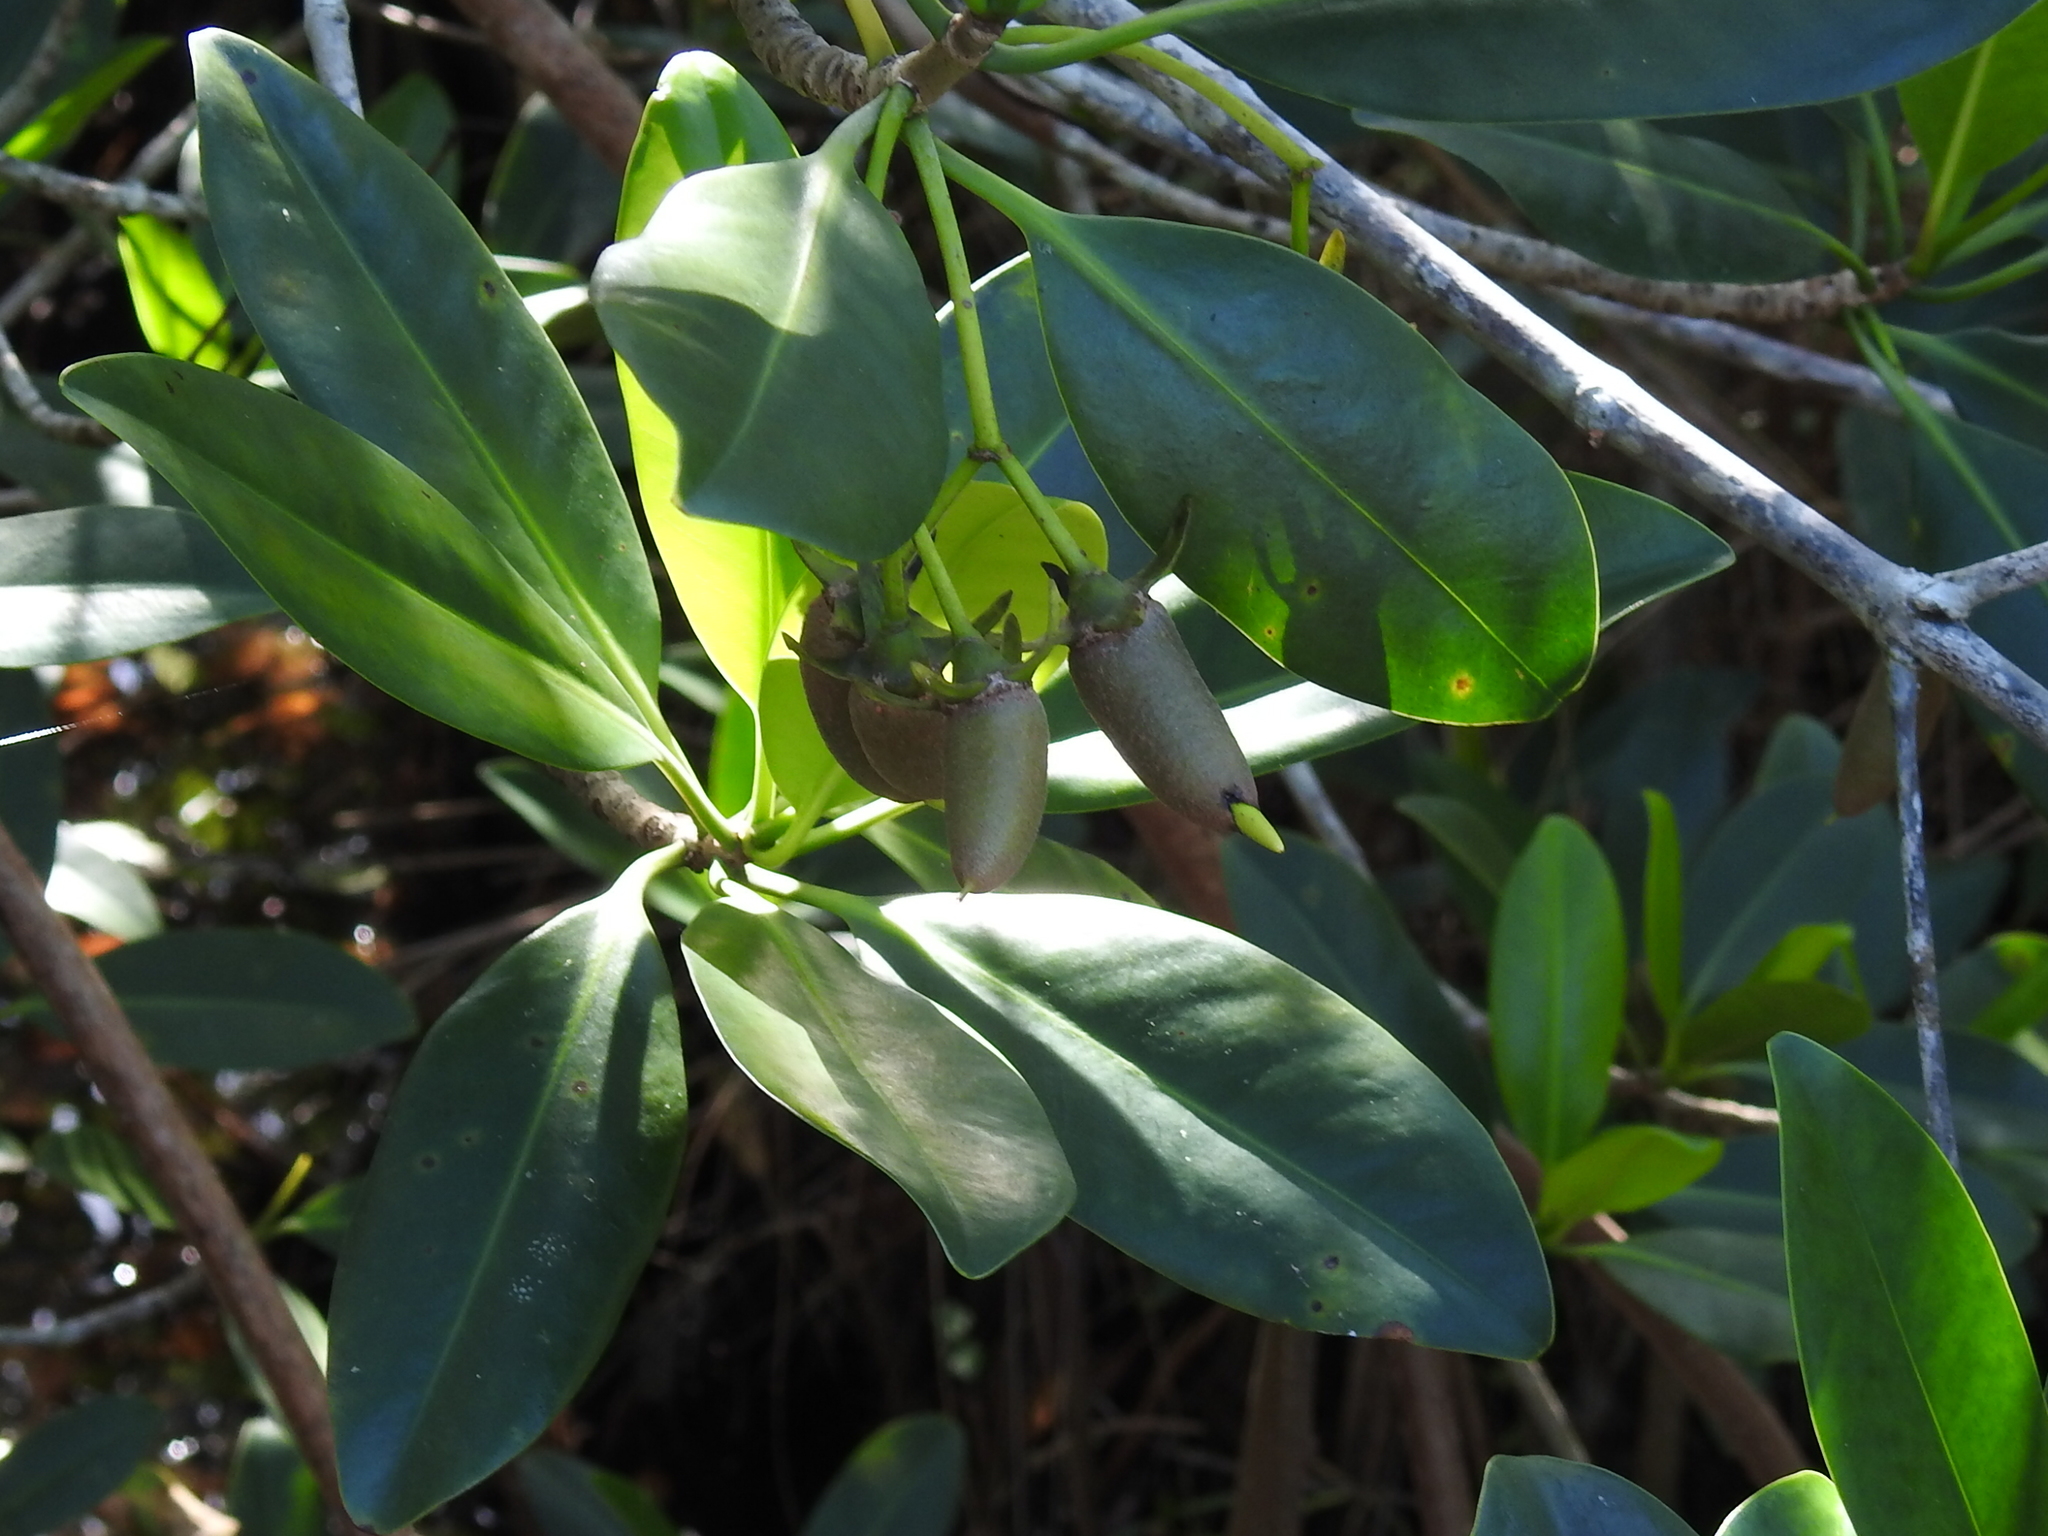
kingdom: Plantae
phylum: Tracheophyta
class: Magnoliopsida
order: Malpighiales
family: Rhizophoraceae
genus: Rhizophora
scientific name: Rhizophora mangle
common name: Red mangrove
